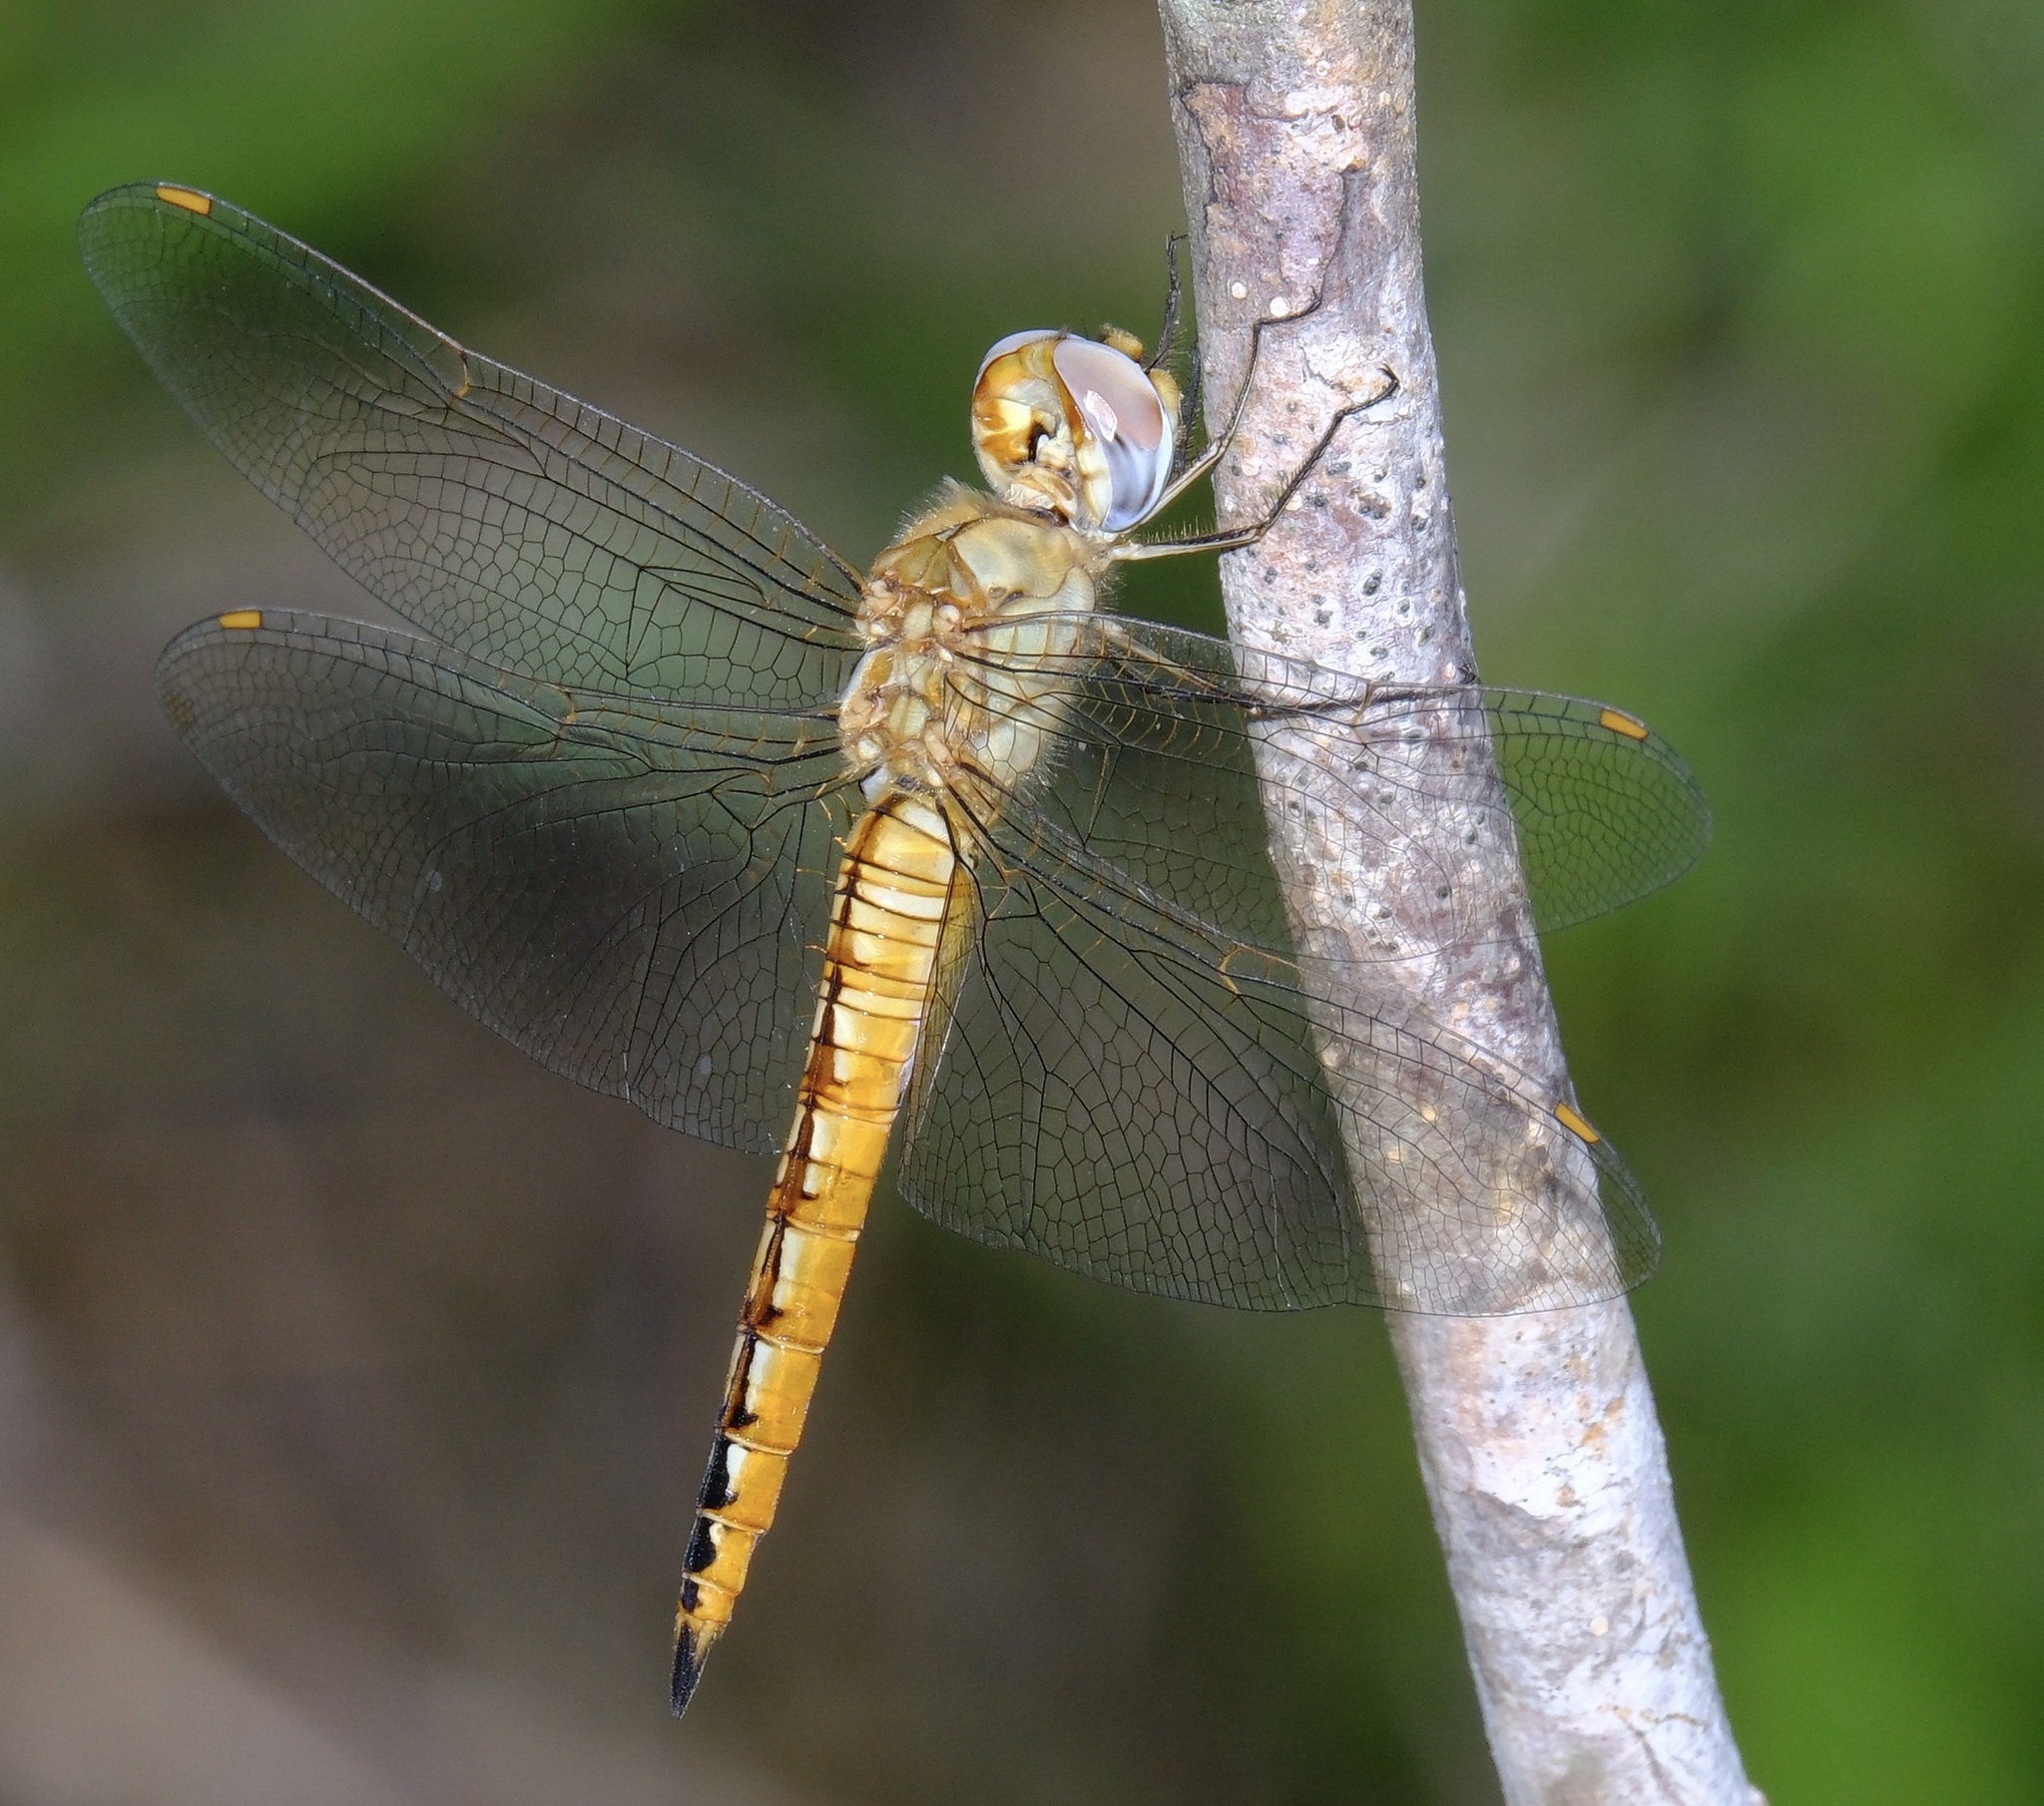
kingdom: Animalia
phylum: Arthropoda
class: Insecta
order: Odonata
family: Libellulidae
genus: Pantala
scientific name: Pantala flavescens
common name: Wandering glider
